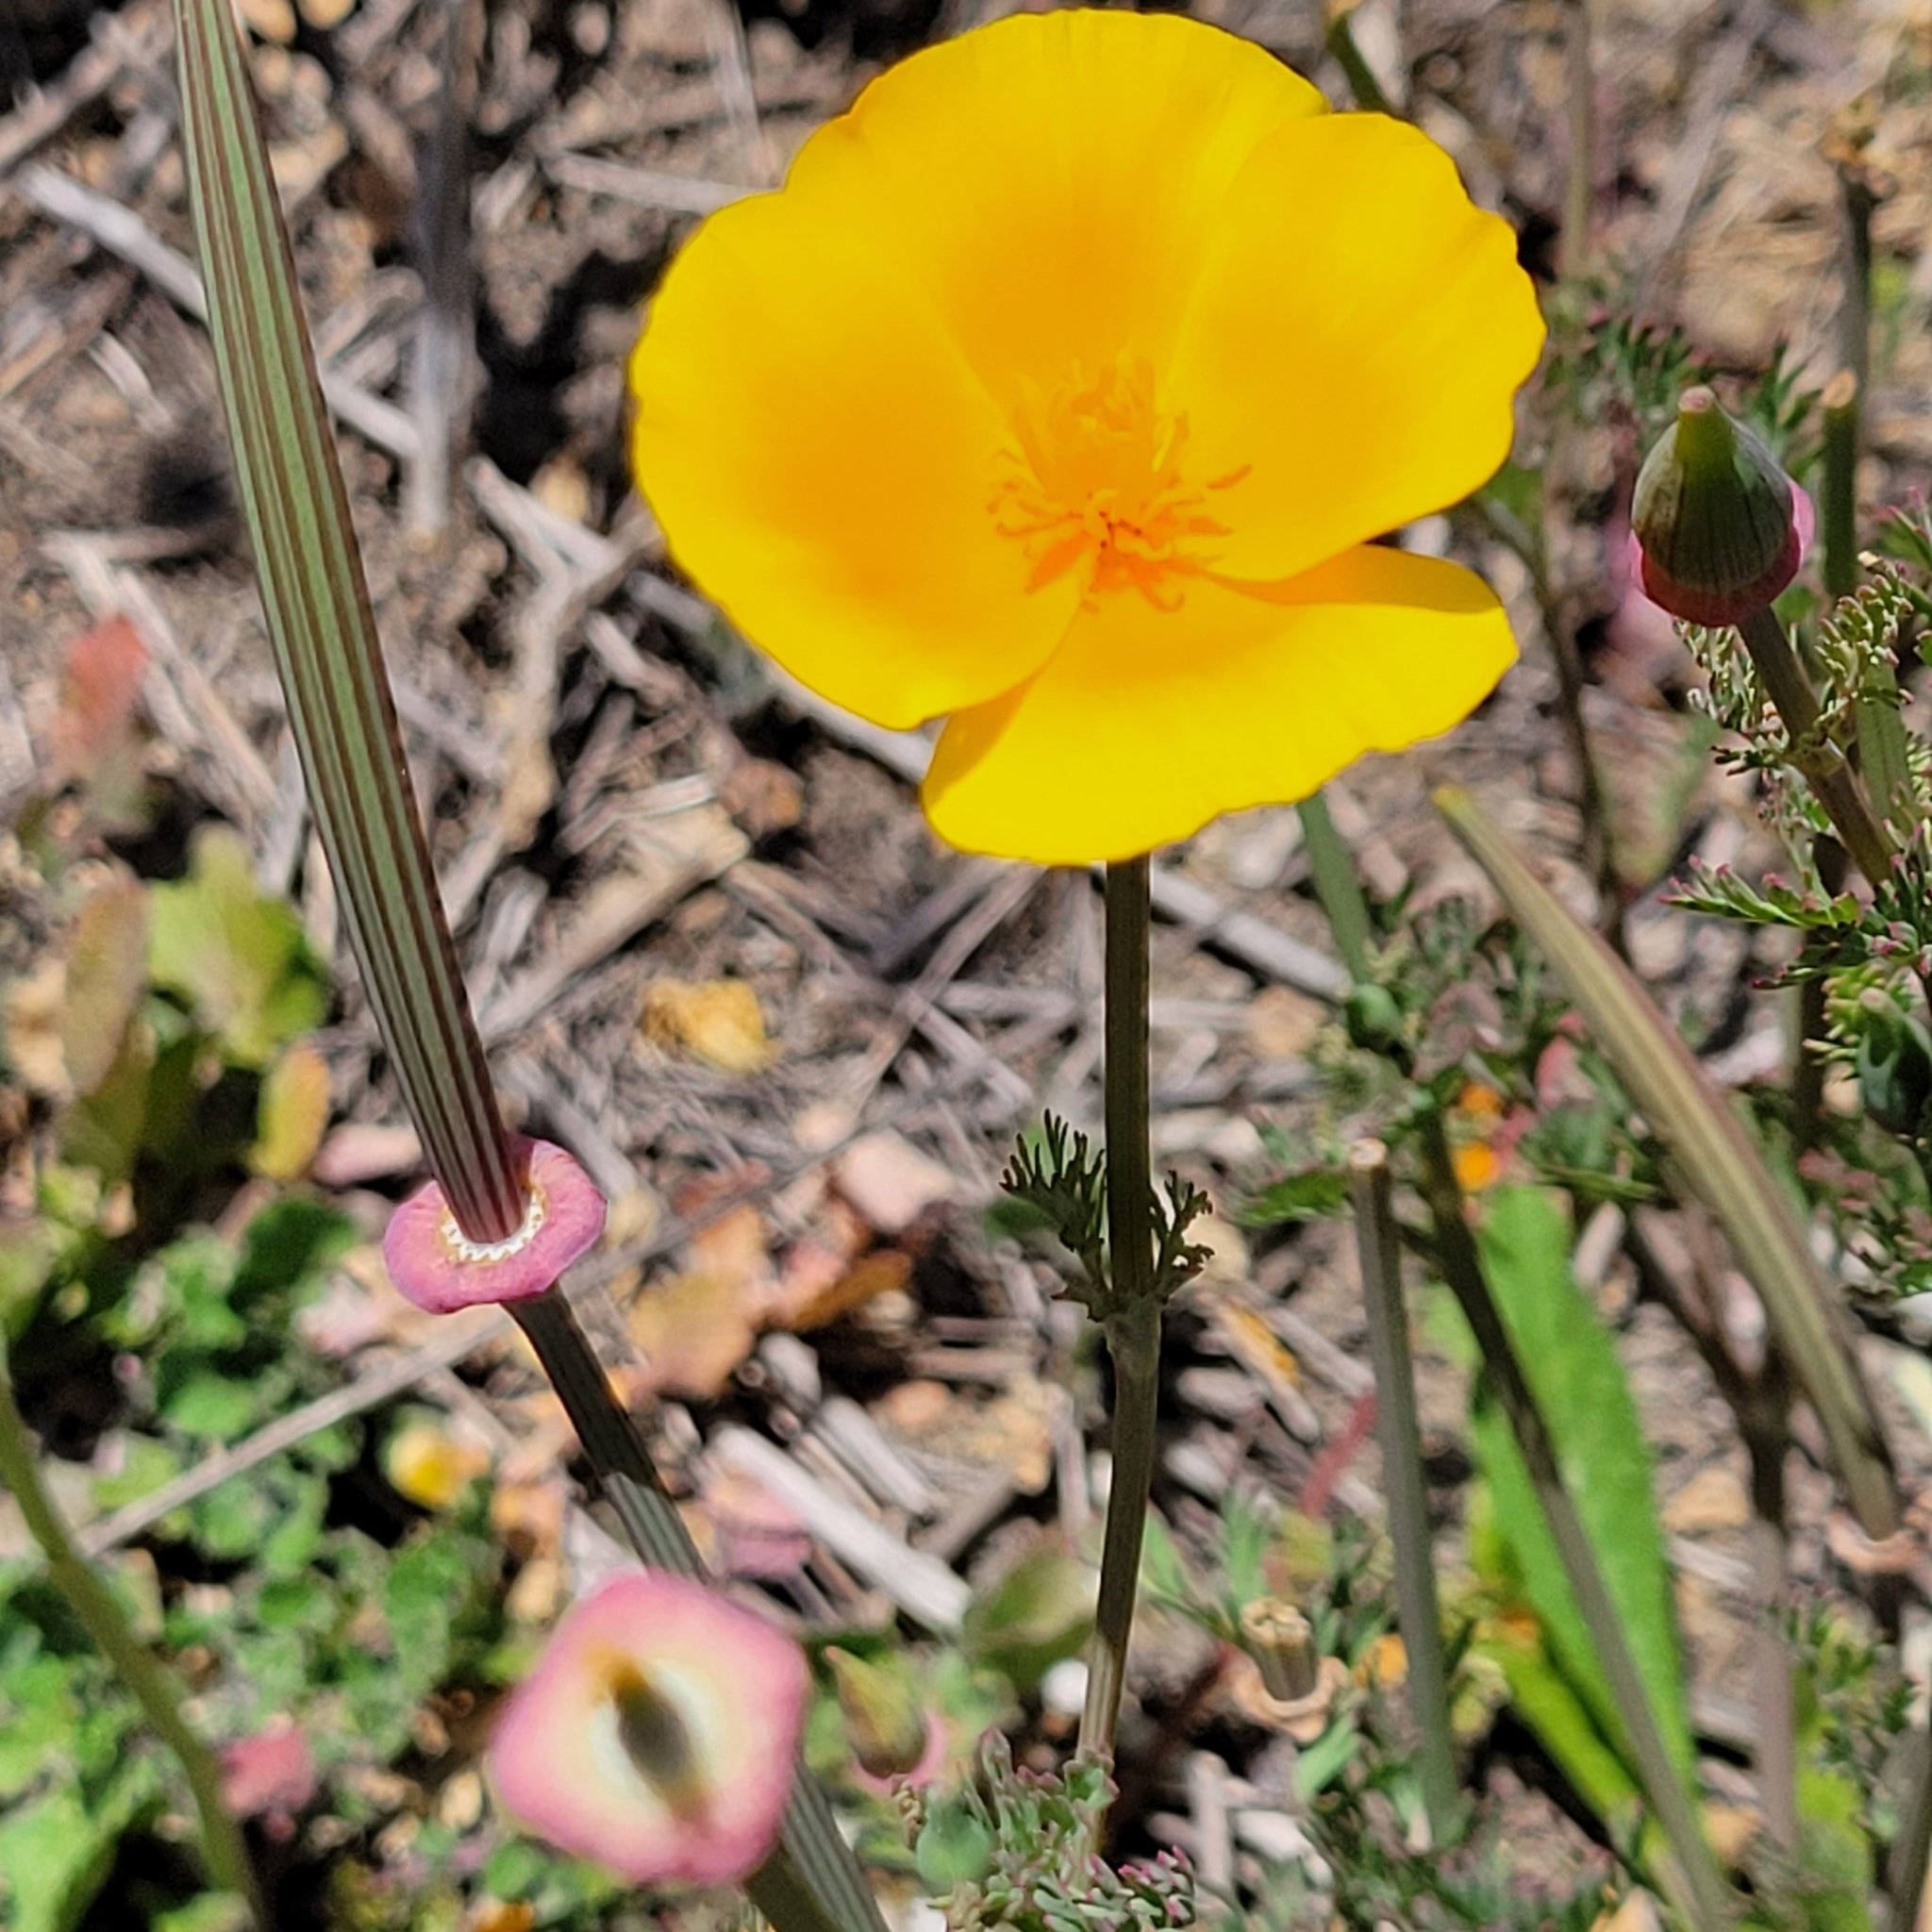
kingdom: Plantae
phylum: Tracheophyta
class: Magnoliopsida
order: Ranunculales
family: Papaveraceae
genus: Eschscholzia
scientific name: Eschscholzia californica
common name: California poppy
